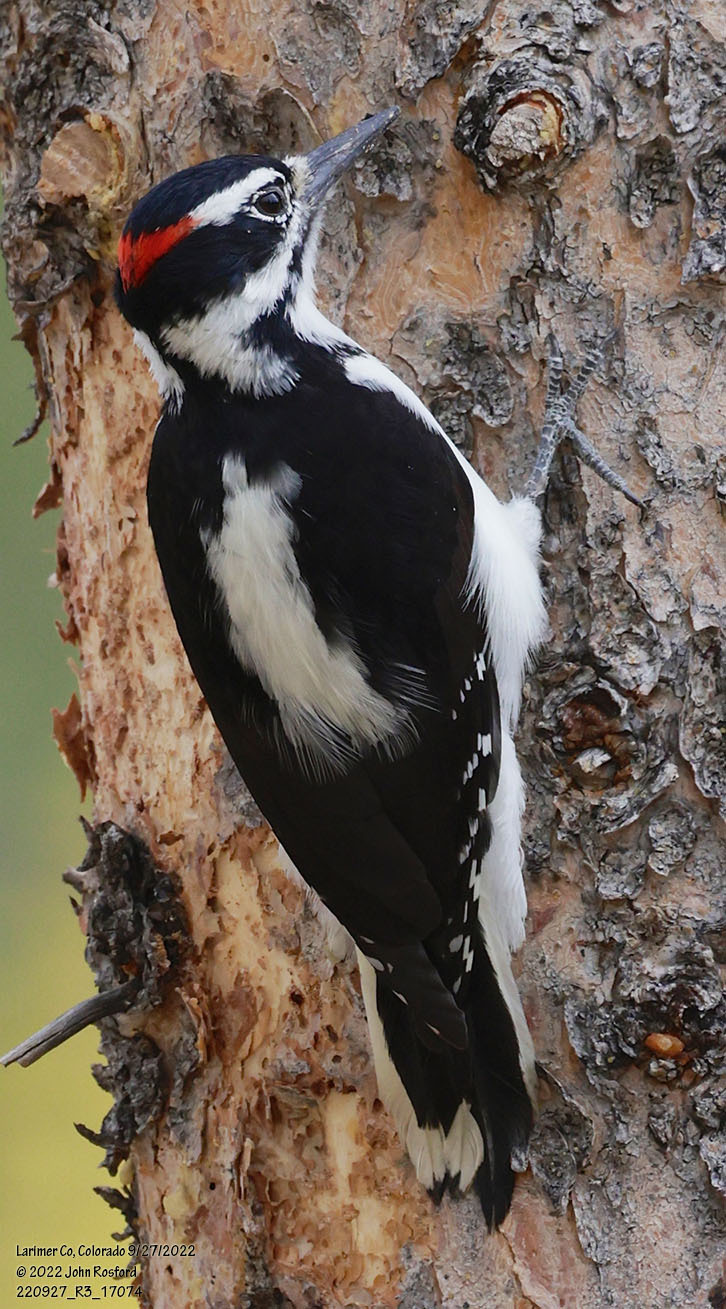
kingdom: Animalia
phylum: Chordata
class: Aves
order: Piciformes
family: Picidae
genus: Leuconotopicus
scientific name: Leuconotopicus villosus
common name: Hairy woodpecker
